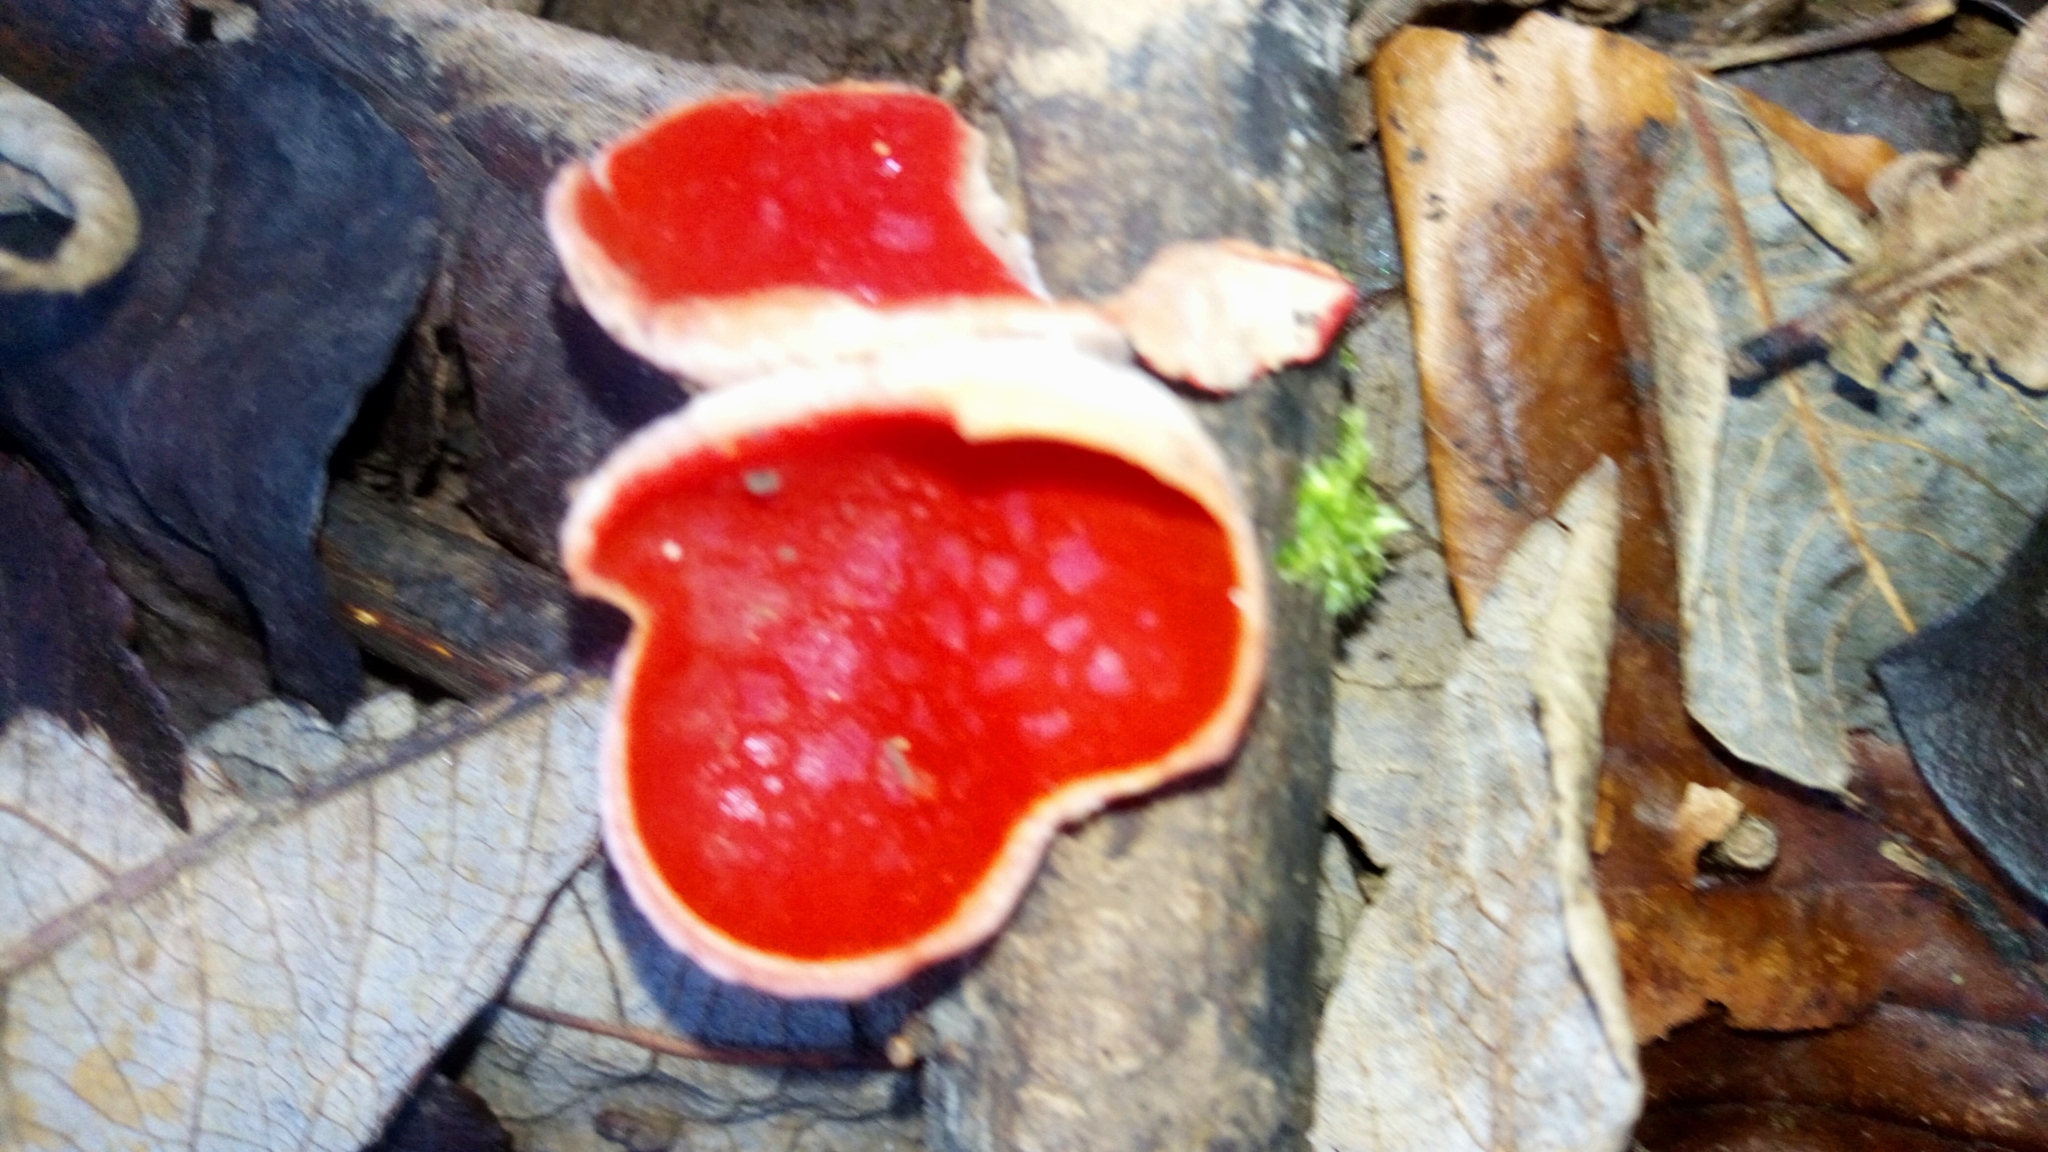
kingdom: Fungi
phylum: Ascomycota
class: Pezizomycetes
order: Pezizales
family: Sarcoscyphaceae
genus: Sarcoscypha
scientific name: Sarcoscypha
